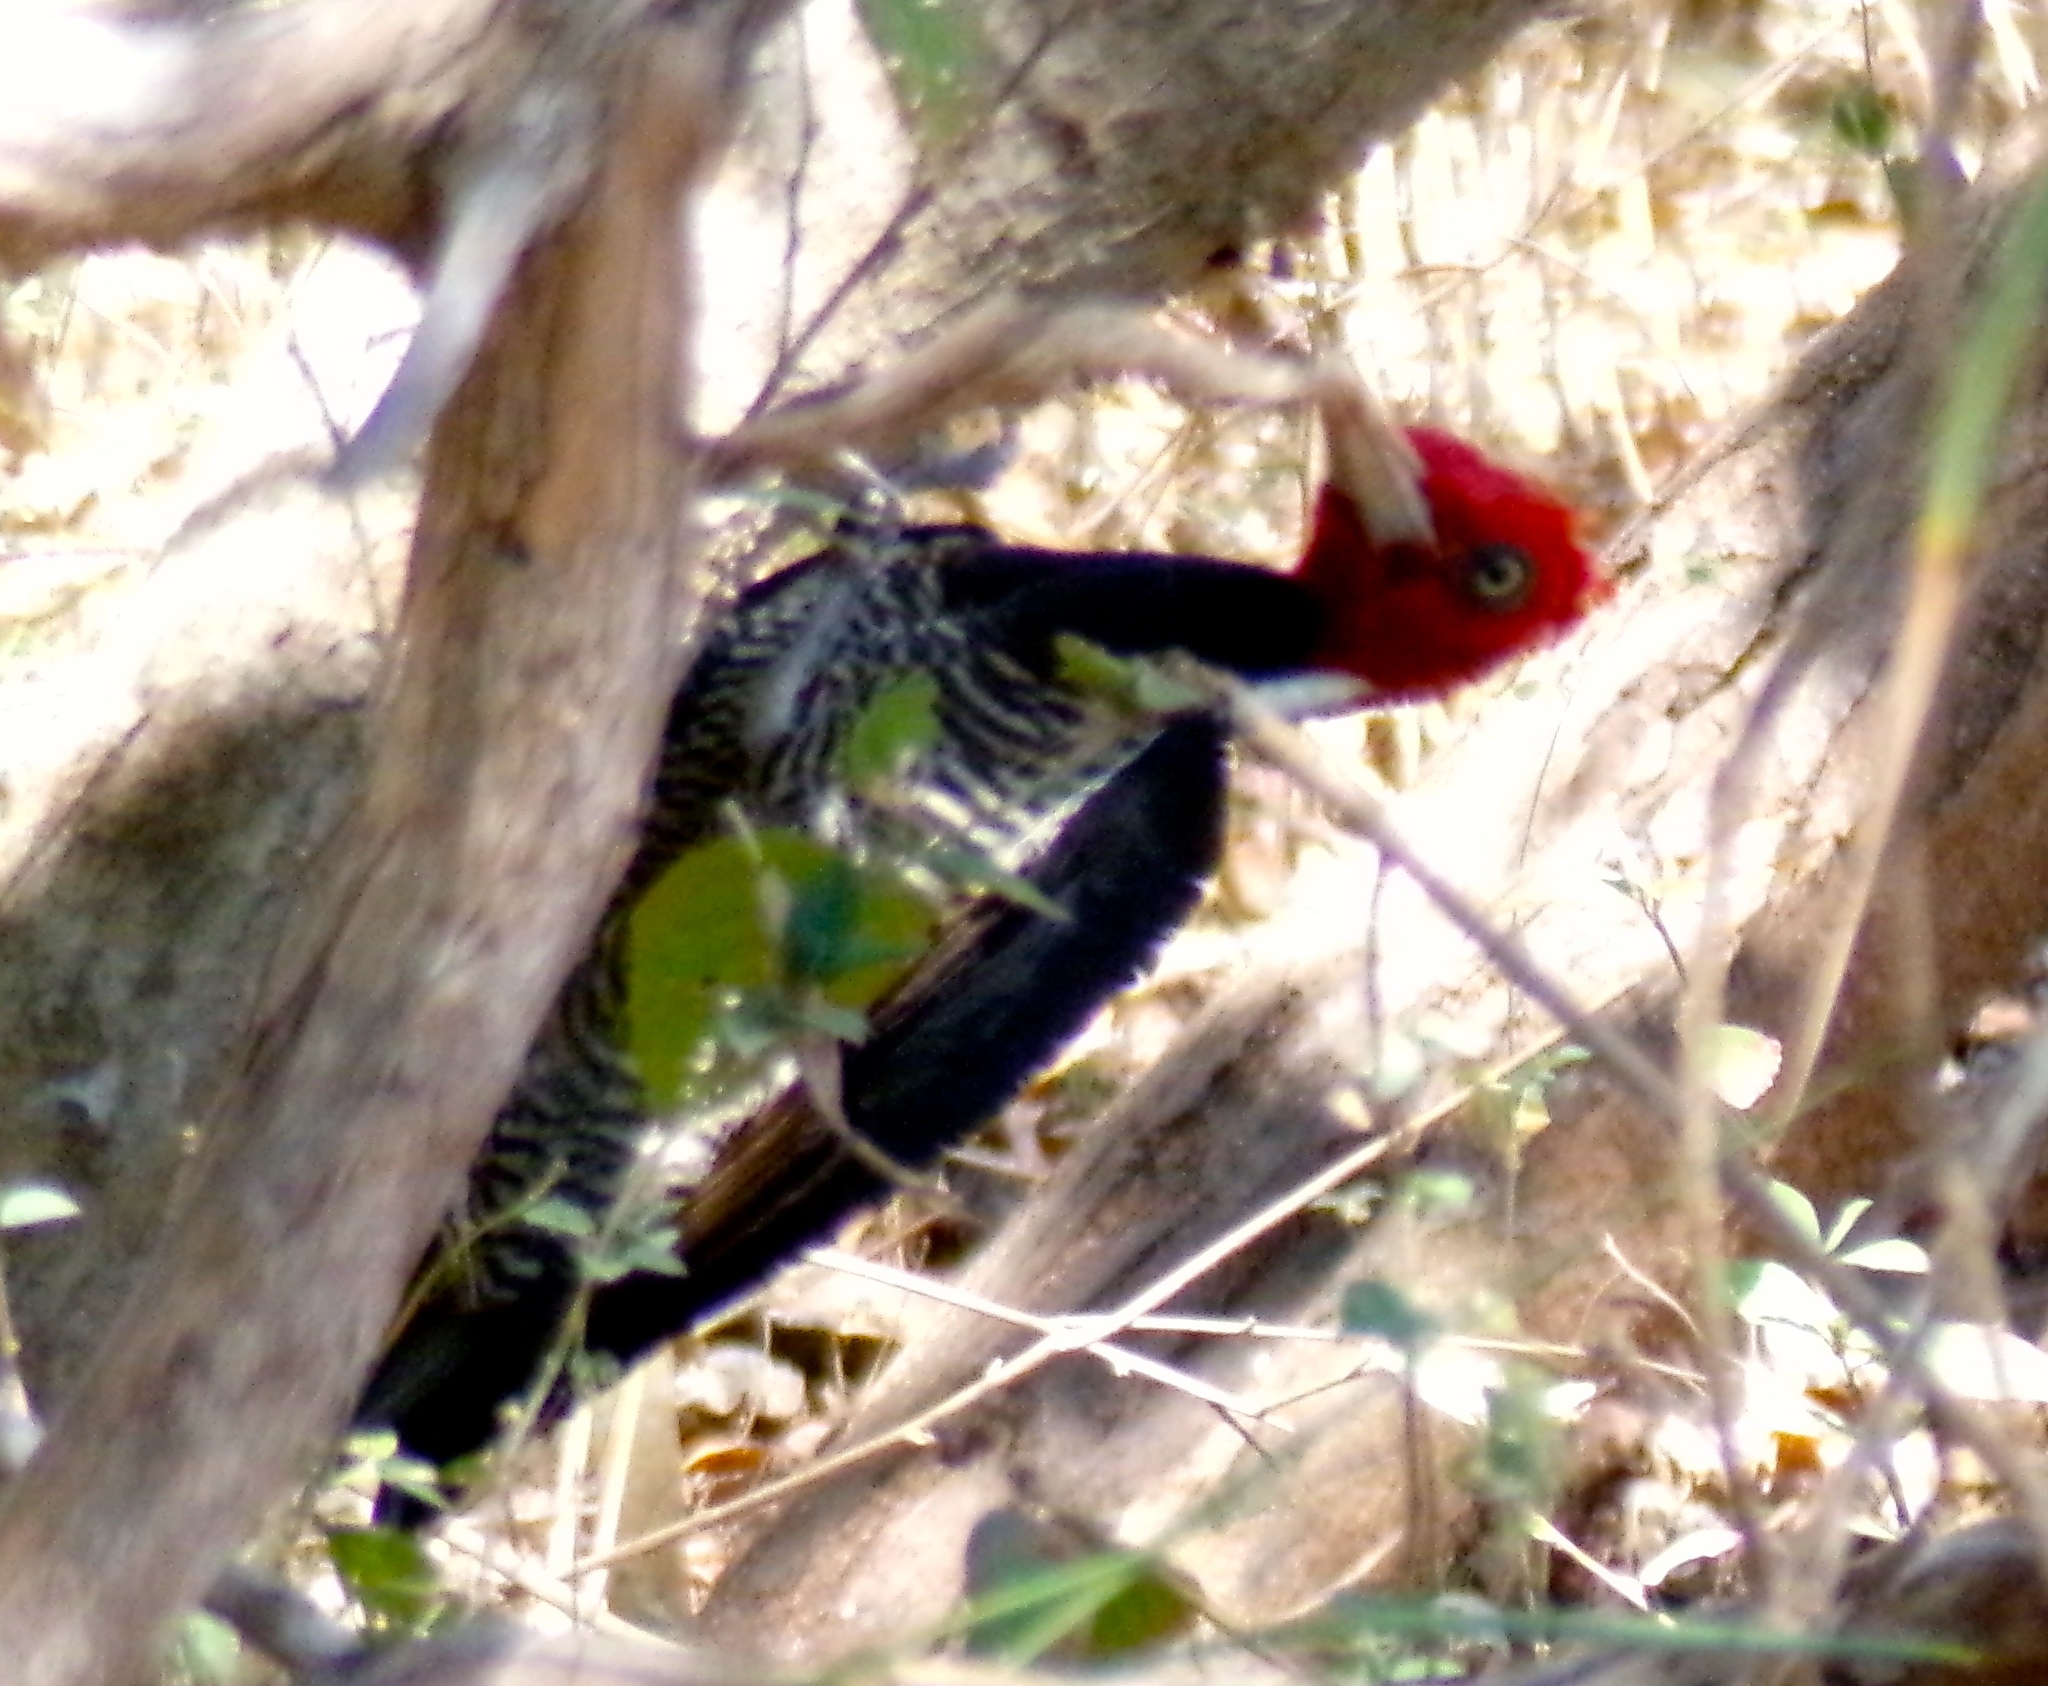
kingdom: Animalia
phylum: Chordata
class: Aves
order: Piciformes
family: Picidae
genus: Campephilus
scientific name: Campephilus guatemalensis
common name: Pale-billed woodpecker
